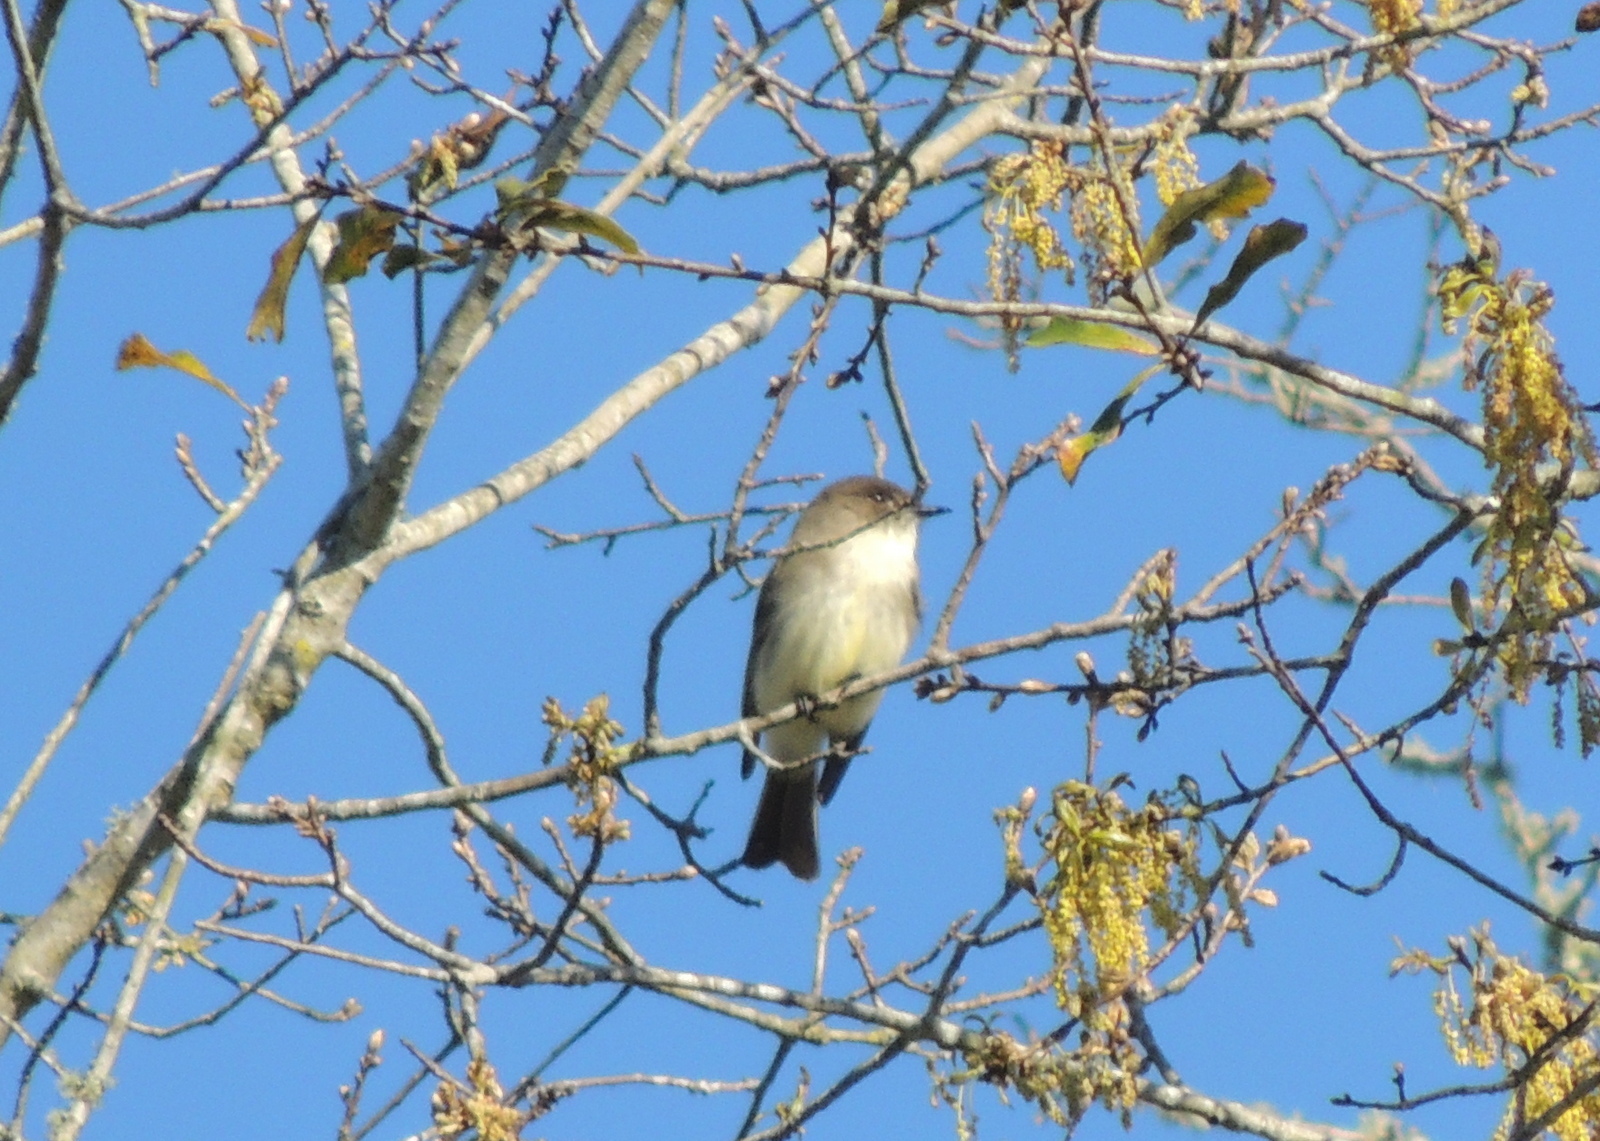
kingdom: Animalia
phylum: Chordata
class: Aves
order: Passeriformes
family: Tyrannidae
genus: Sayornis
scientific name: Sayornis phoebe
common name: Eastern phoebe
